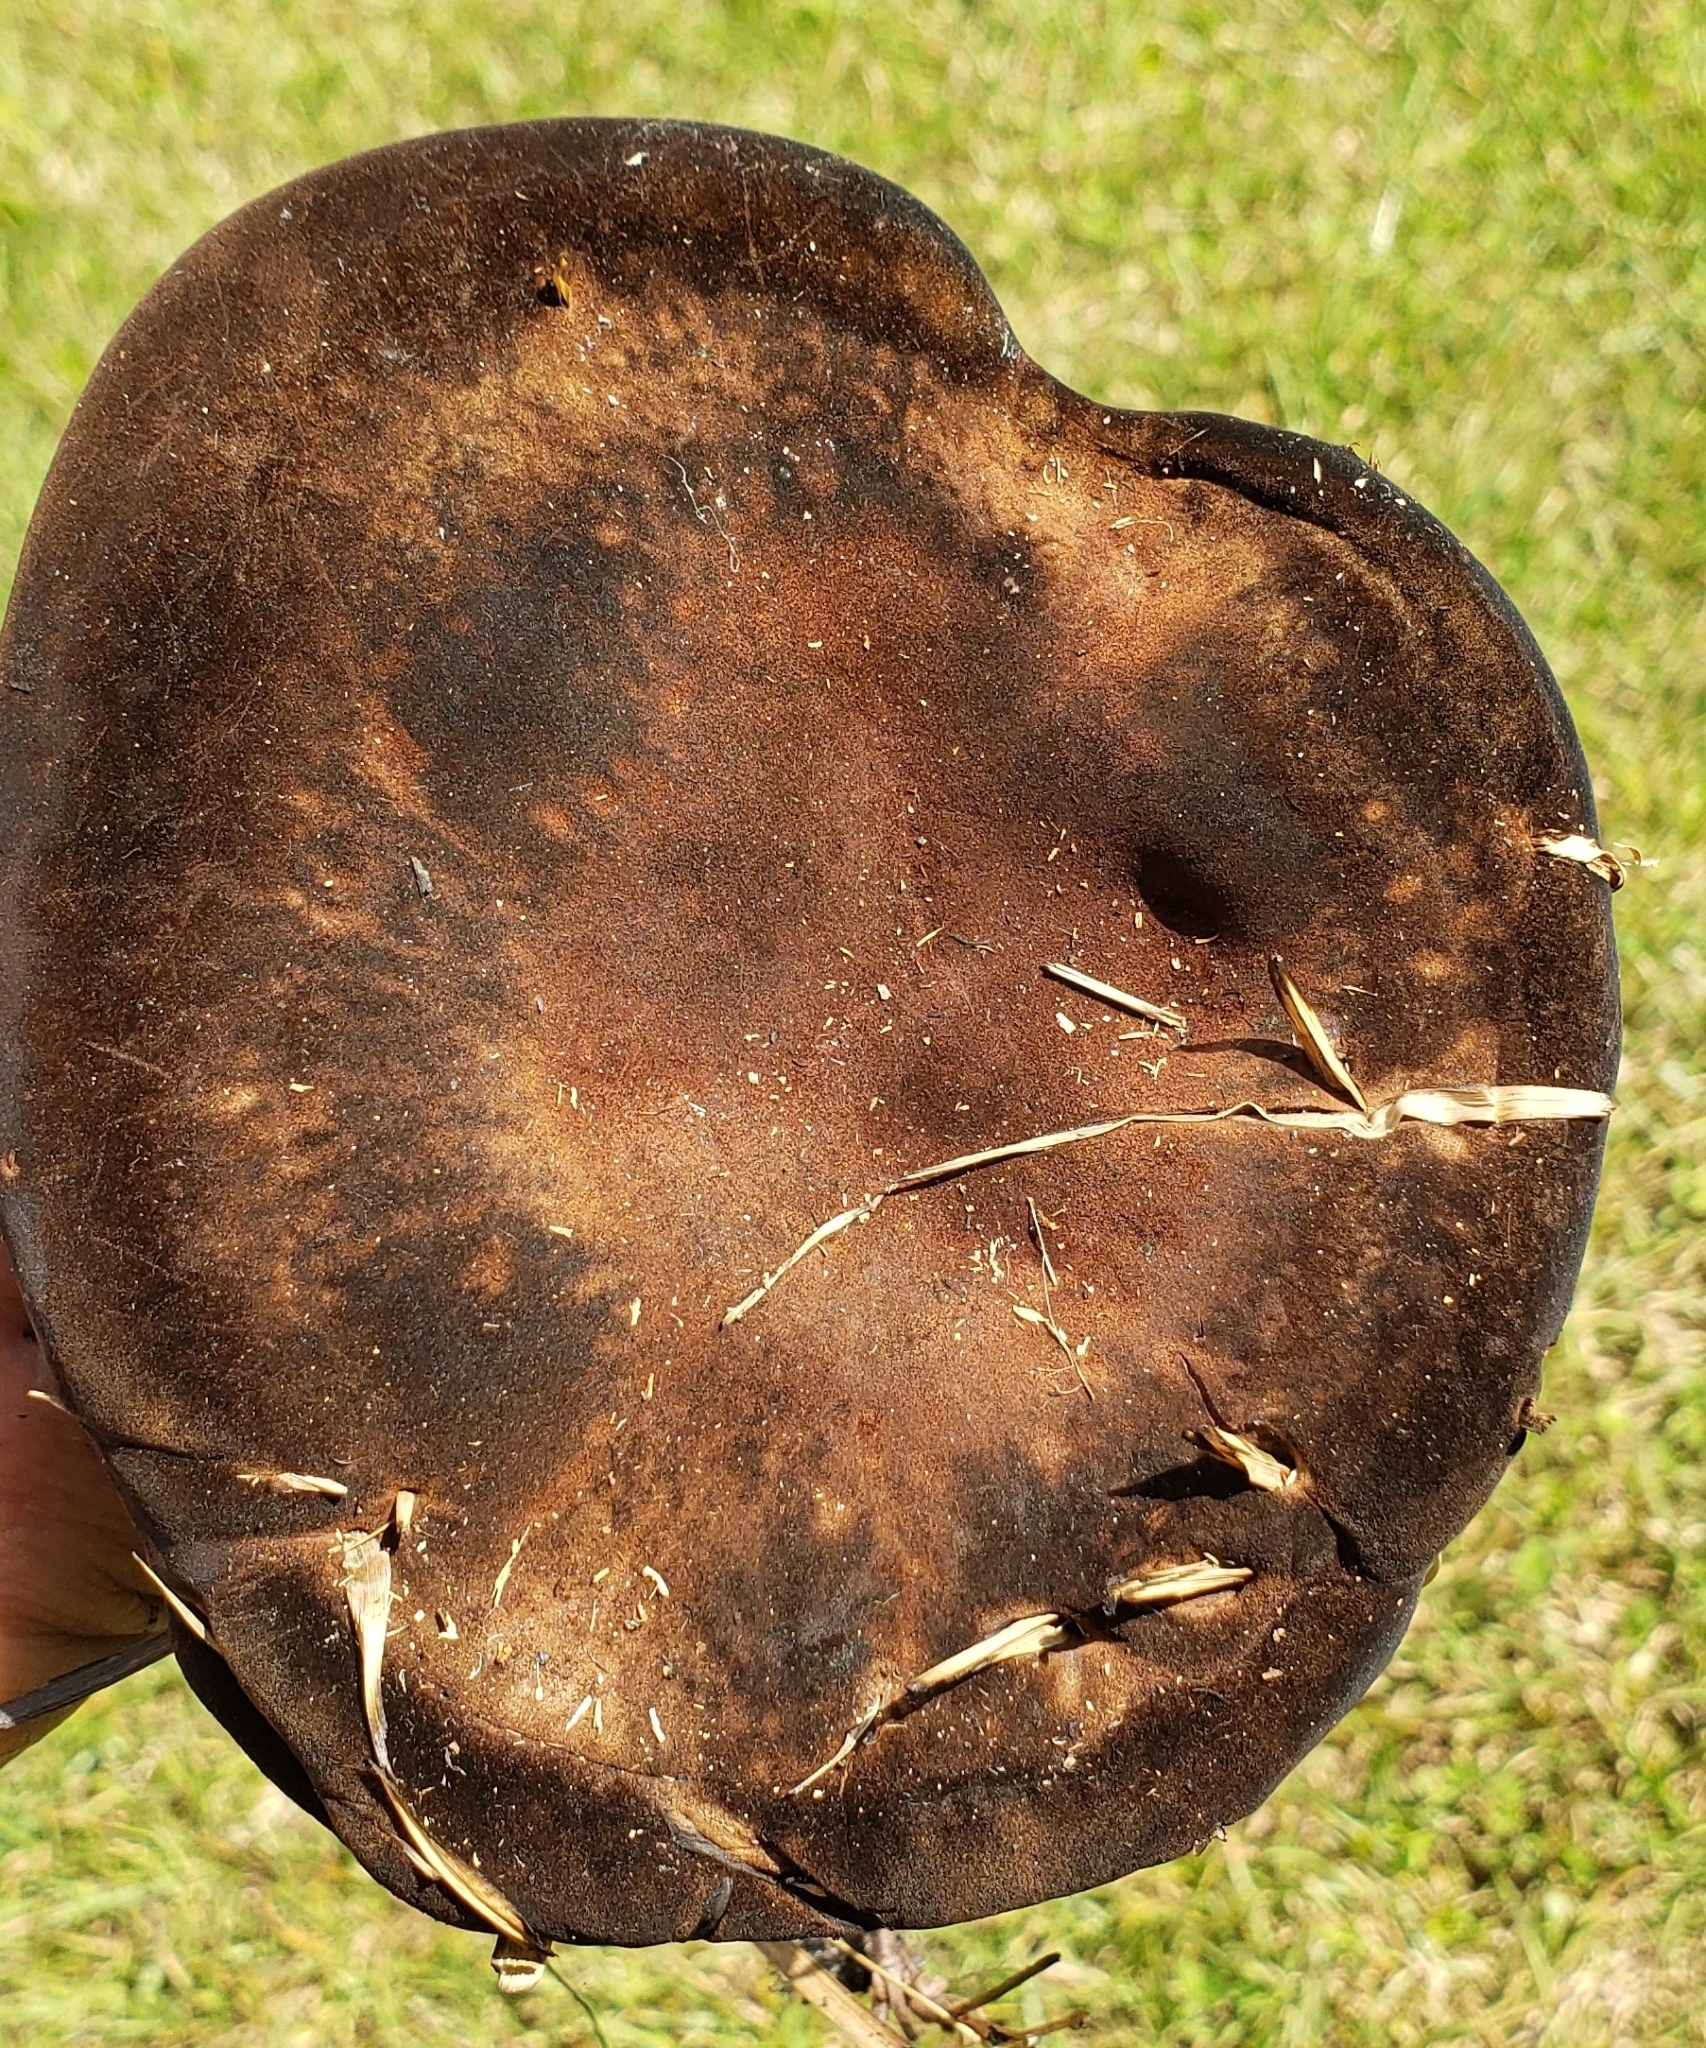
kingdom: Fungi
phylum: Basidiomycota
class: Agaricomycetes
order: Polyporales
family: Laetiporaceae
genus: Berkcurtia
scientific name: Berkcurtia persicina
